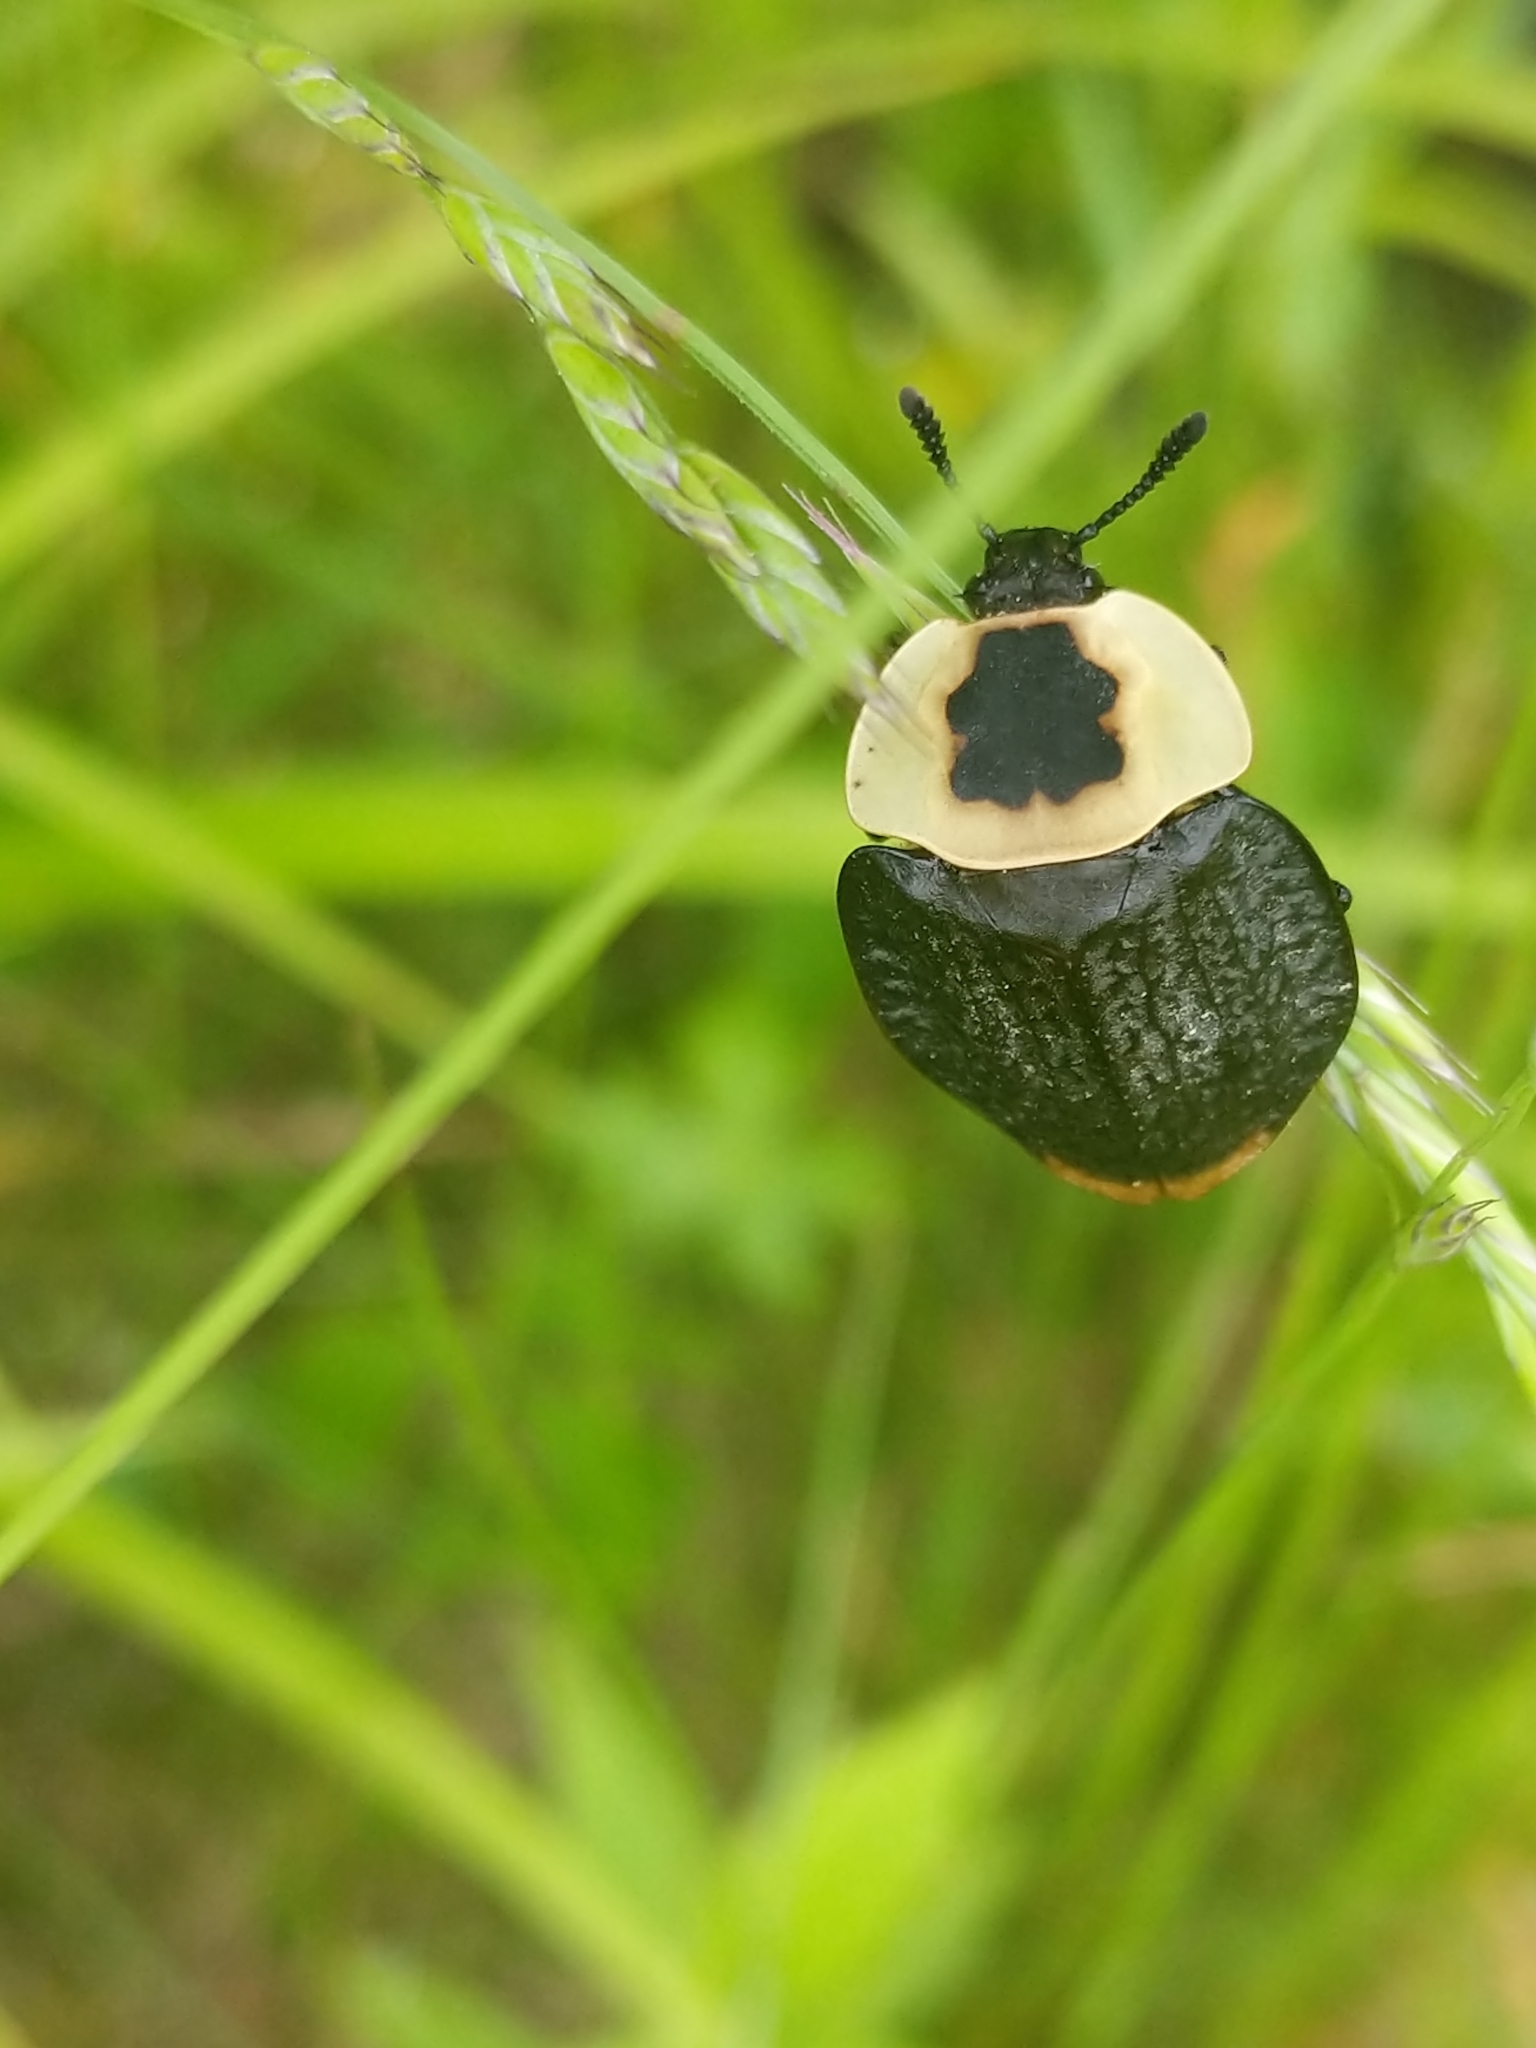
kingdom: Animalia
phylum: Arthropoda
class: Insecta
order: Coleoptera
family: Staphylinidae
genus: Necrophila
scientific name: Necrophila americana
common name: American carrion beetle
